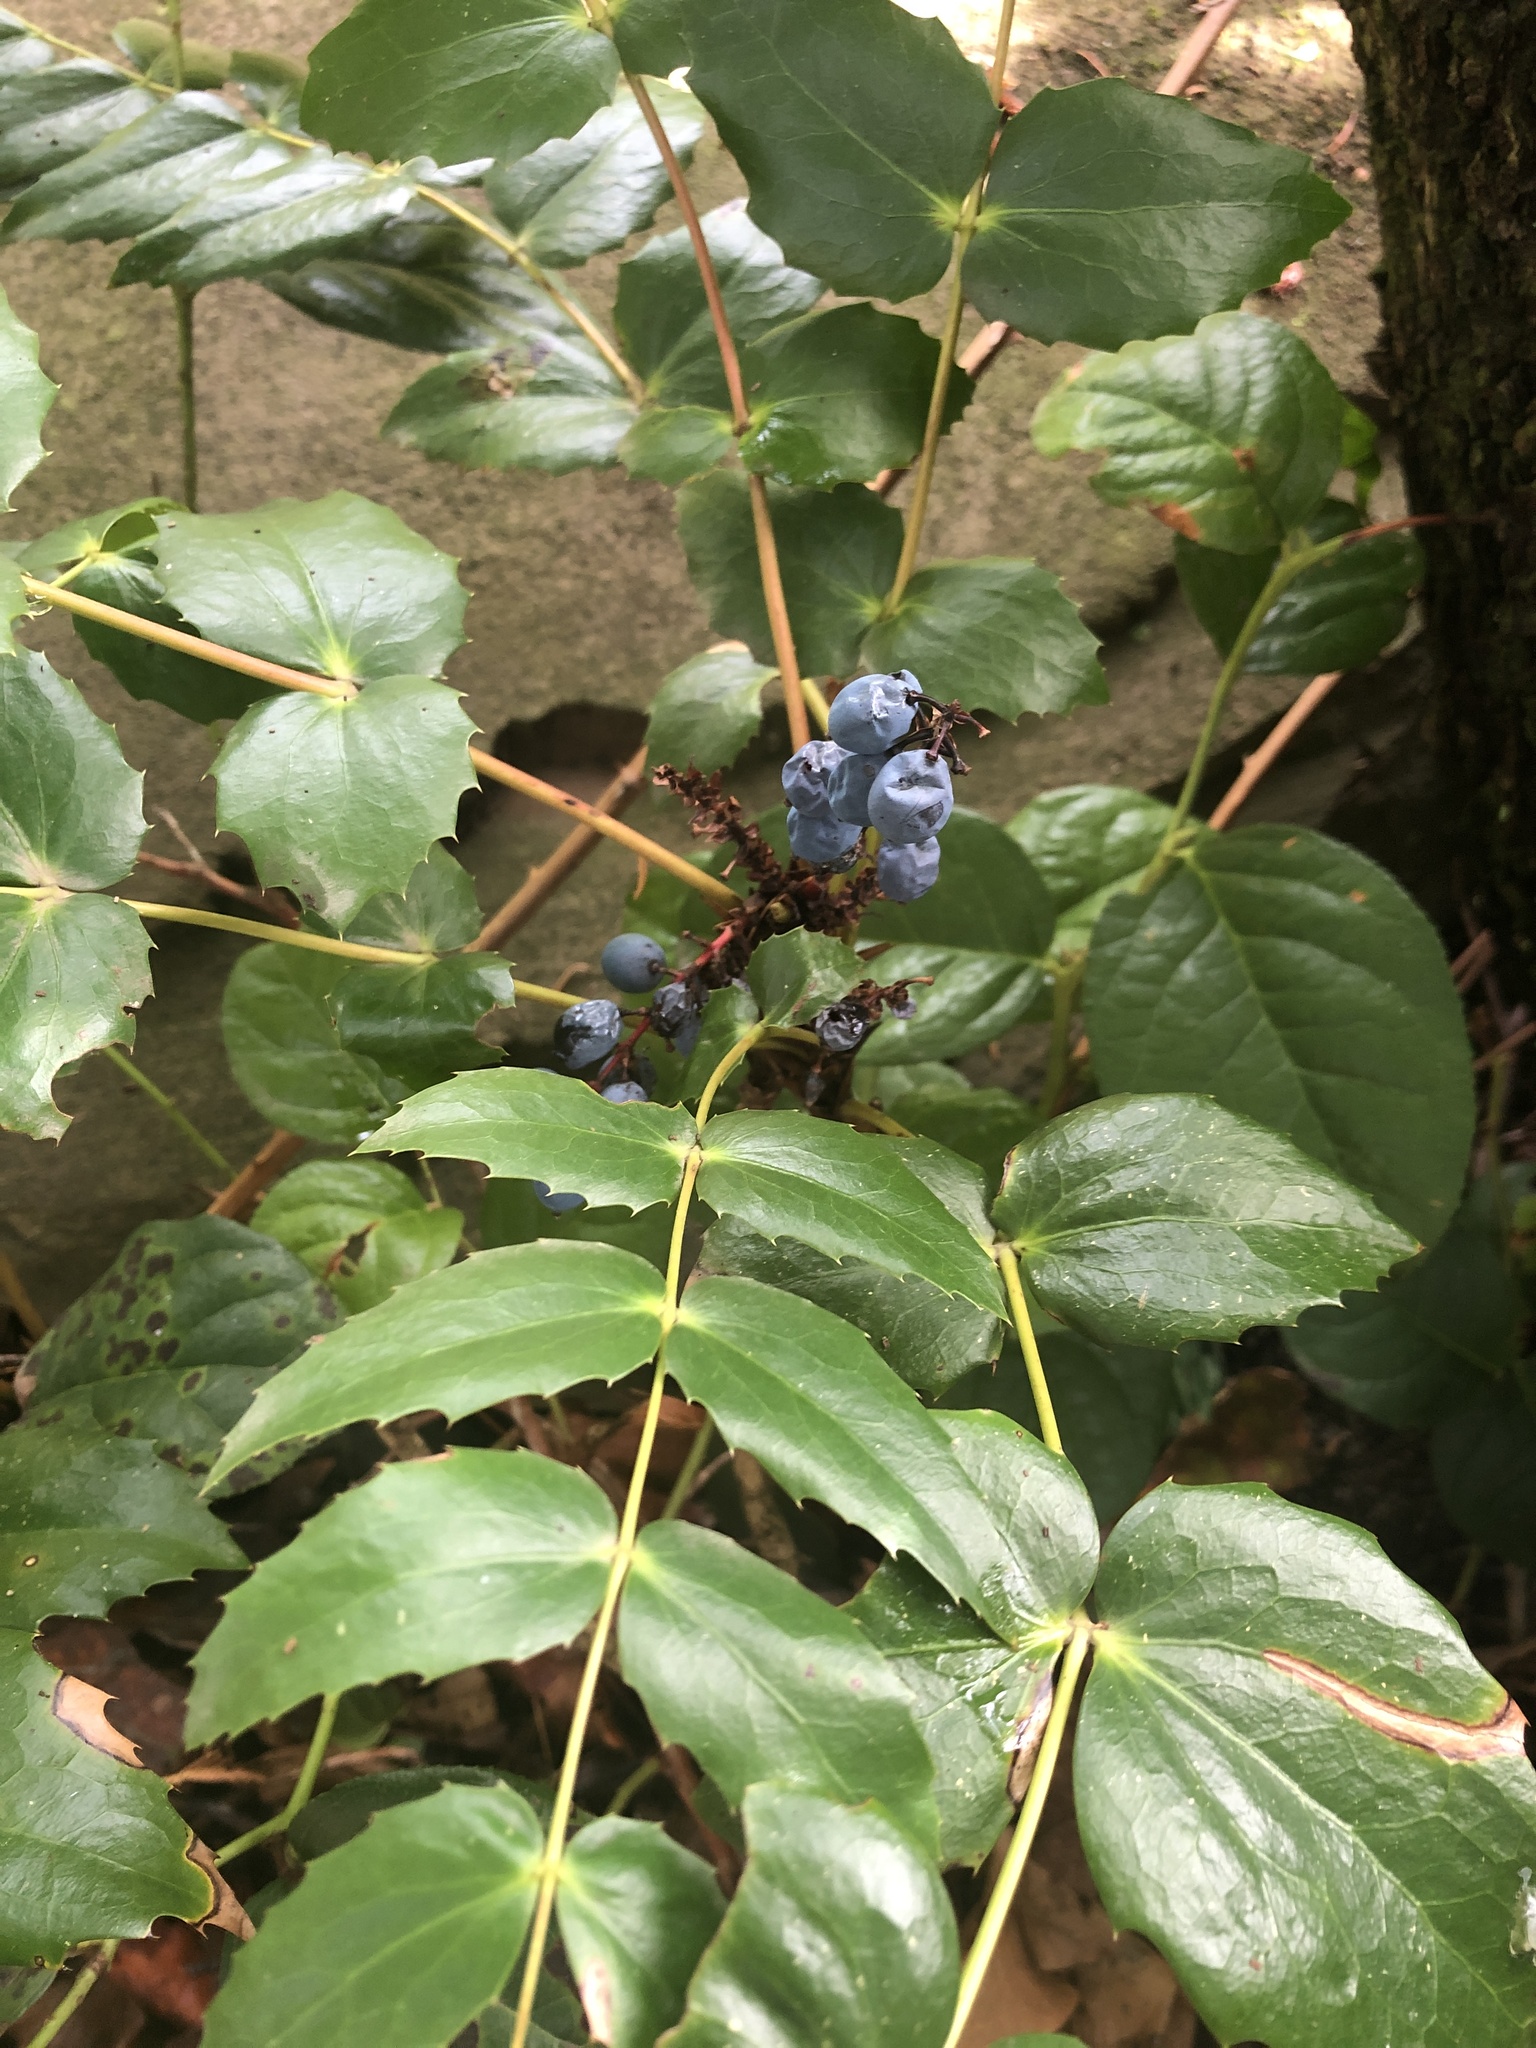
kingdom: Plantae
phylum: Tracheophyta
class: Magnoliopsida
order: Ranunculales
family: Berberidaceae
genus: Mahonia
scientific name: Mahonia nervosa
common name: Cascade oregon-grape
